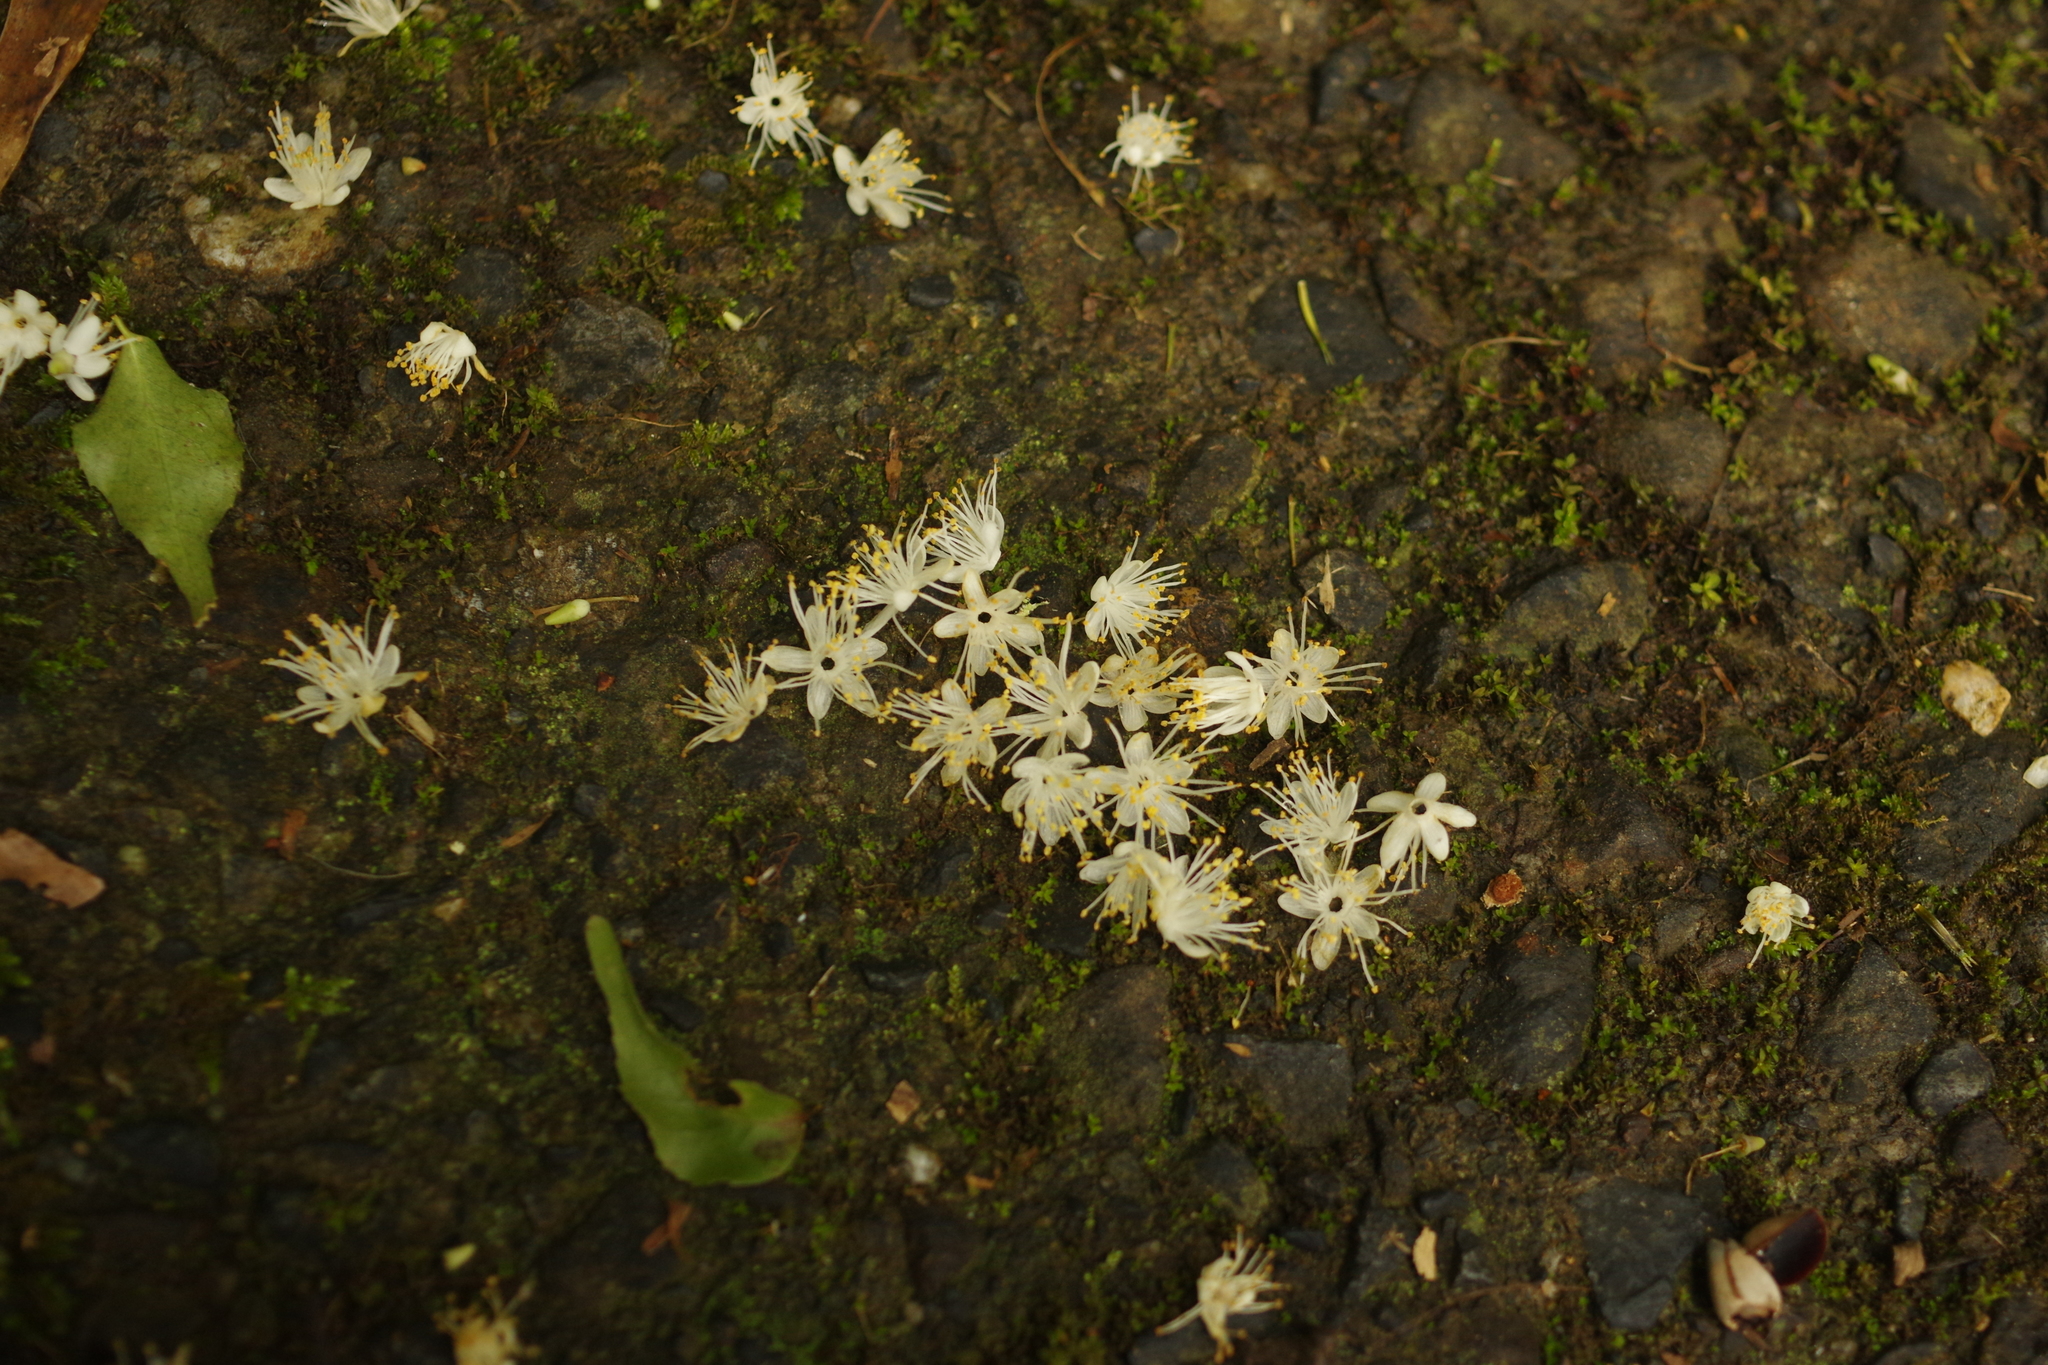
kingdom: Plantae
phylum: Tracheophyta
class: Magnoliopsida
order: Ericales
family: Symplocaceae
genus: Symplocos
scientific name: Symplocos sumuntia
